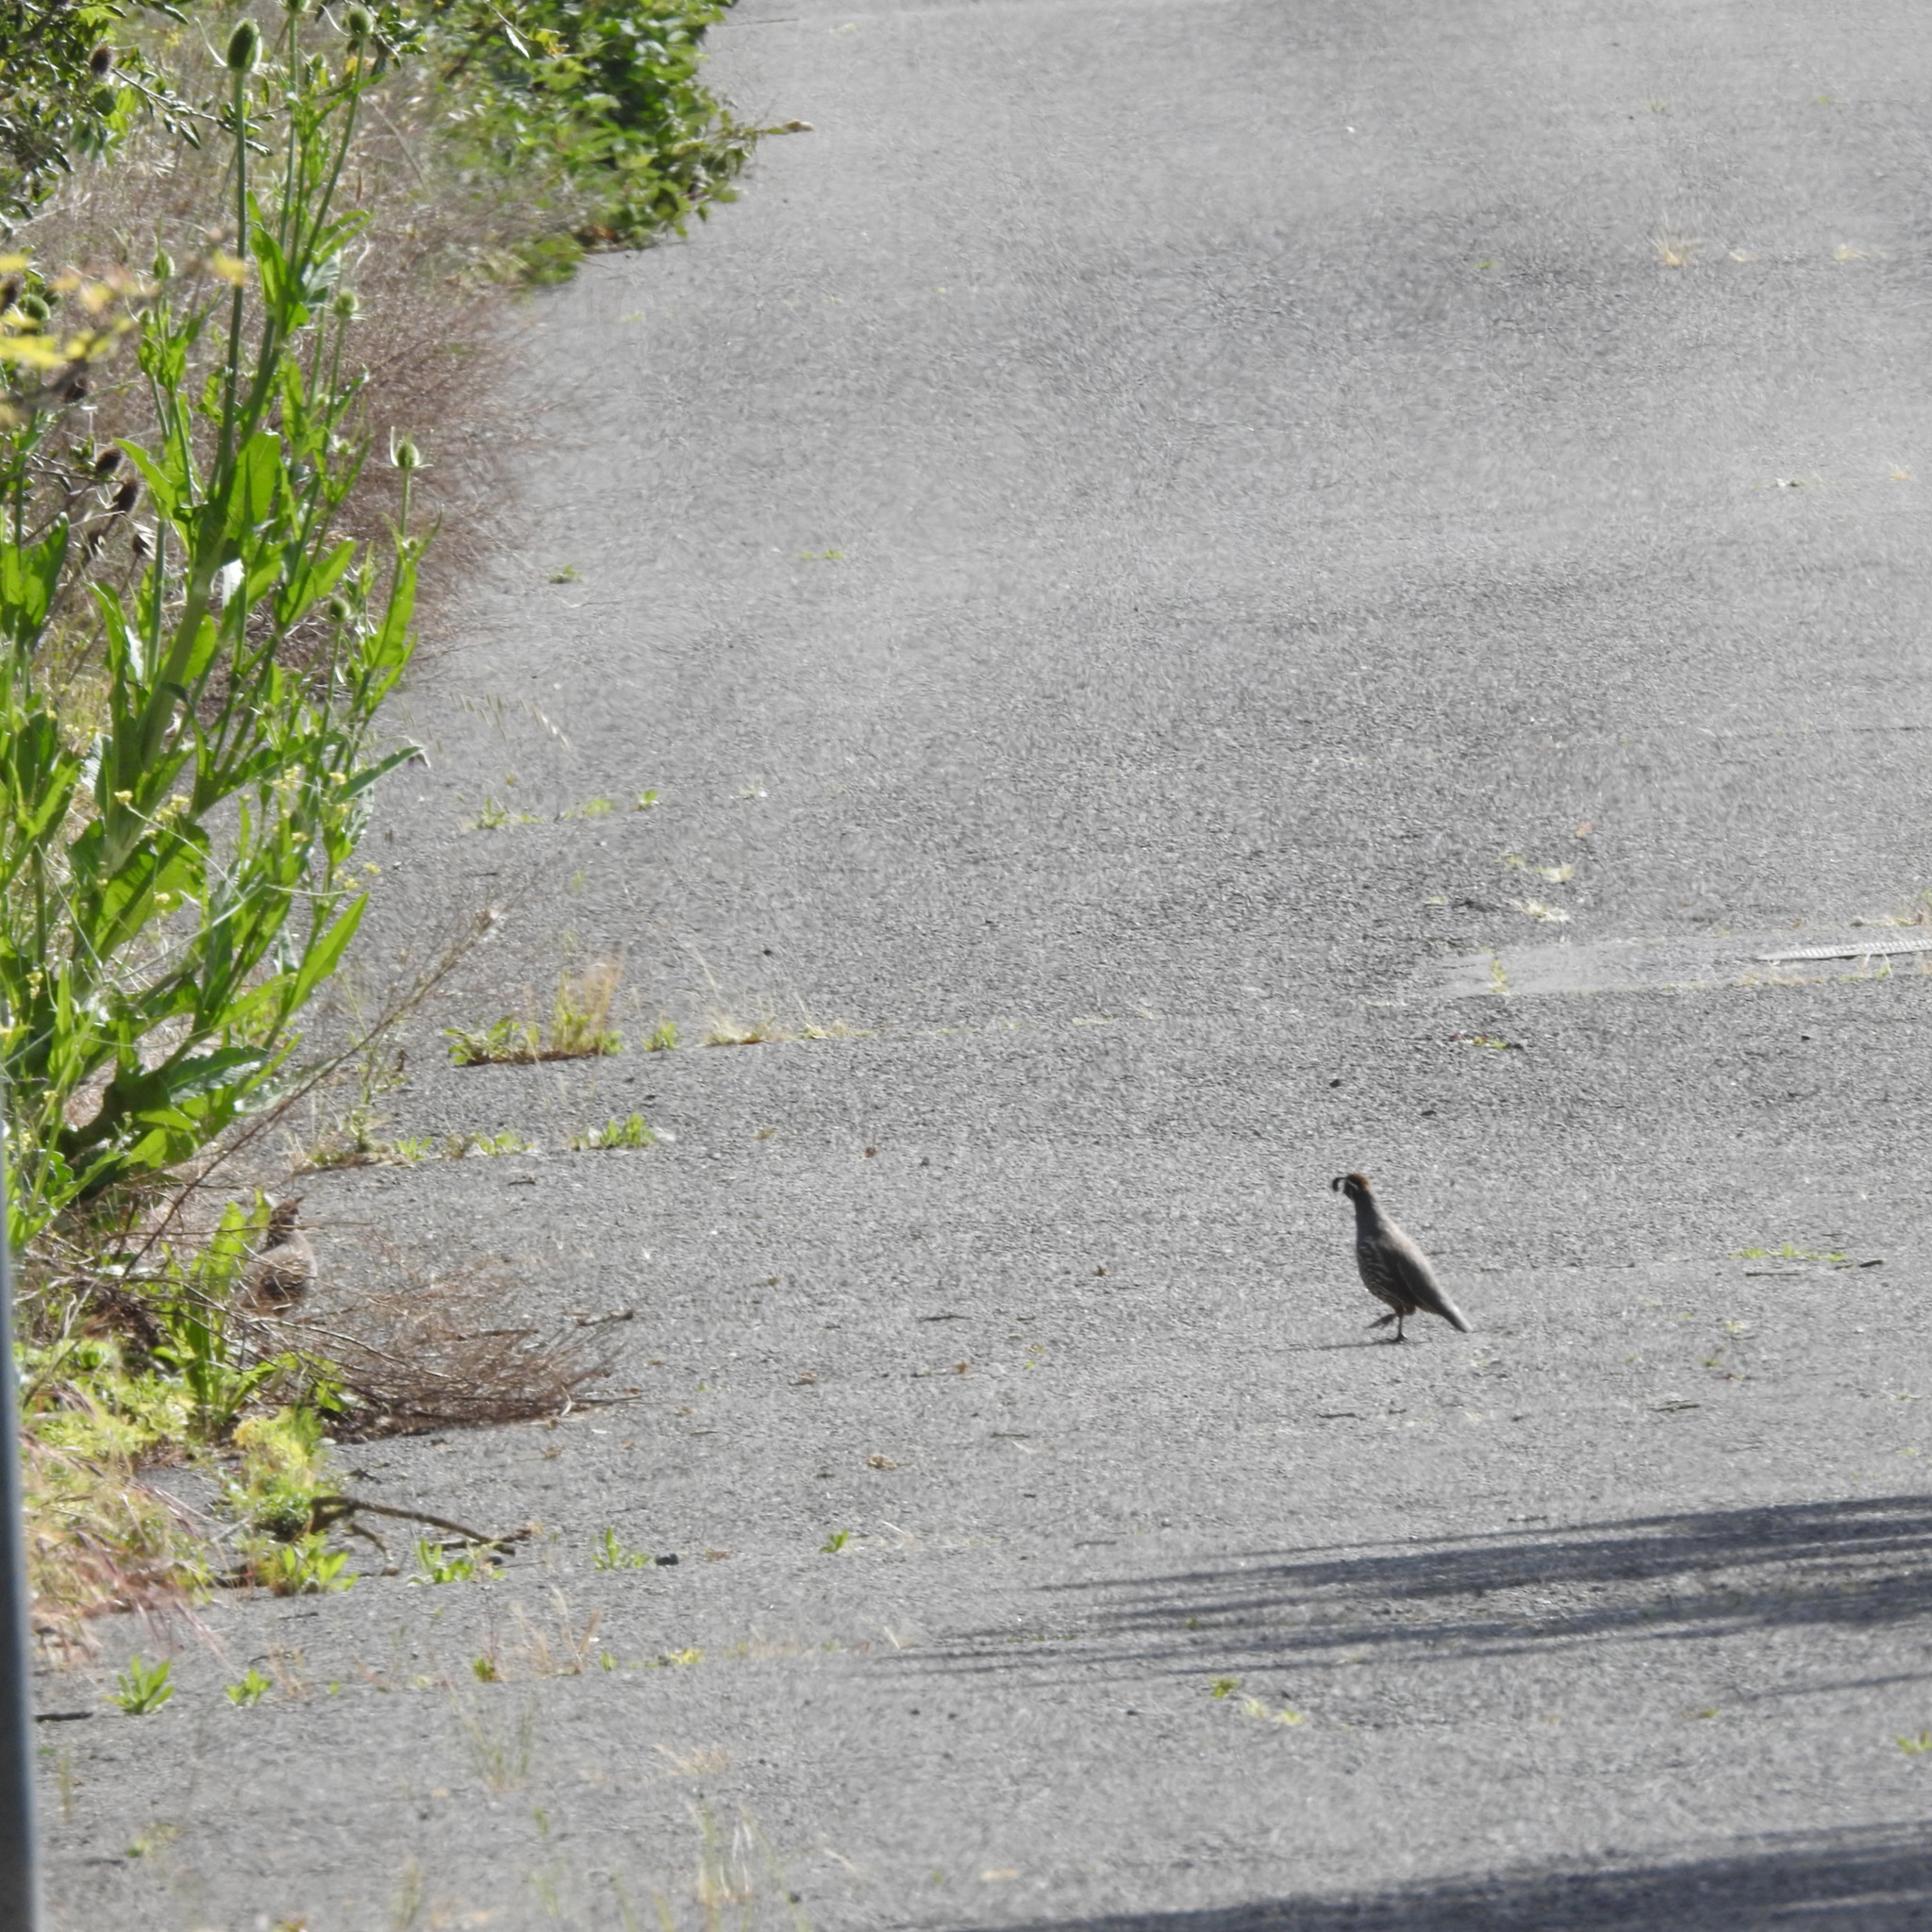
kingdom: Animalia
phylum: Chordata
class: Aves
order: Galliformes
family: Odontophoridae
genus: Callipepla
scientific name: Callipepla californica
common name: California quail
